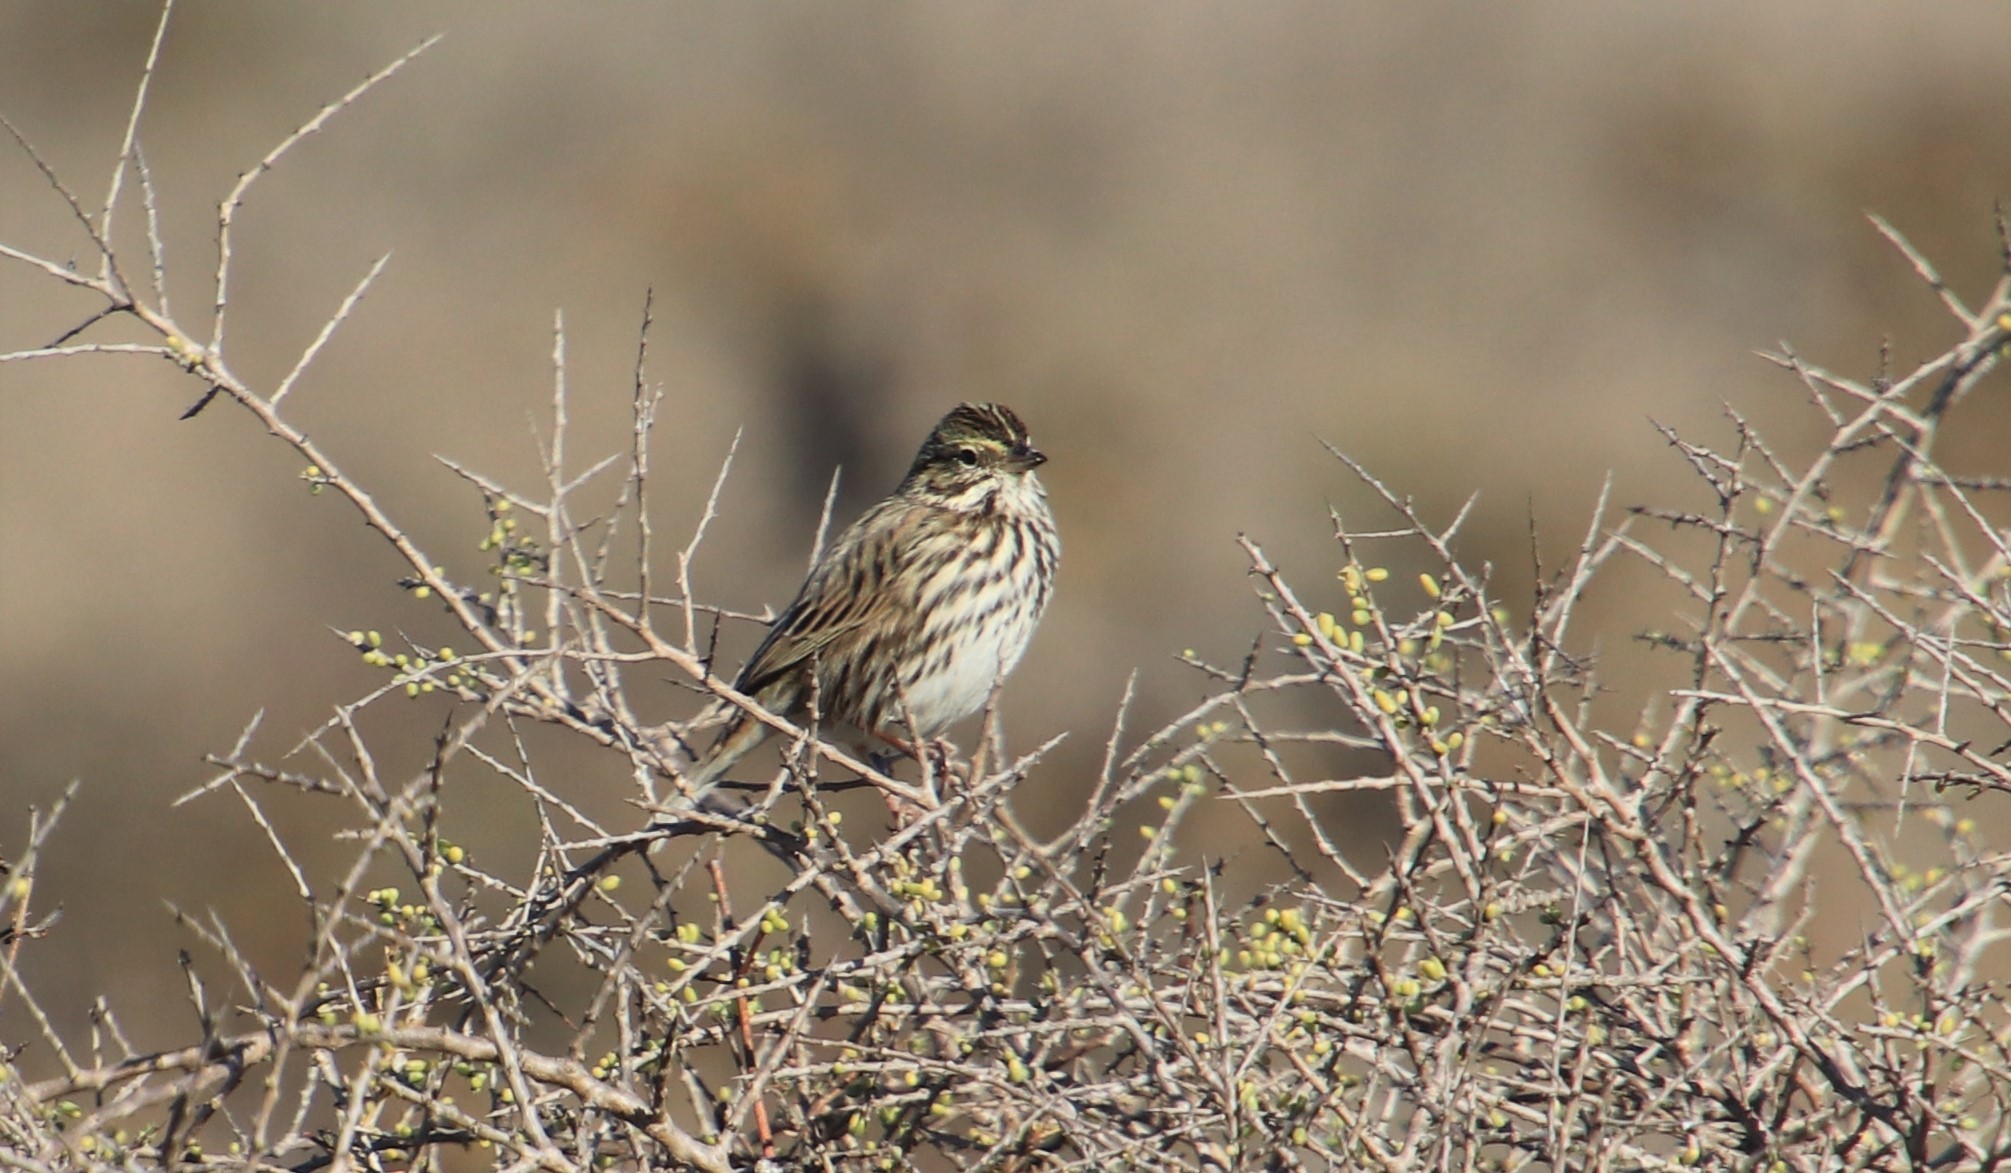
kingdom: Animalia
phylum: Chordata
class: Aves
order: Passeriformes
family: Passerellidae
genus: Passerculus
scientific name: Passerculus sandwichensis
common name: Savannah sparrow
